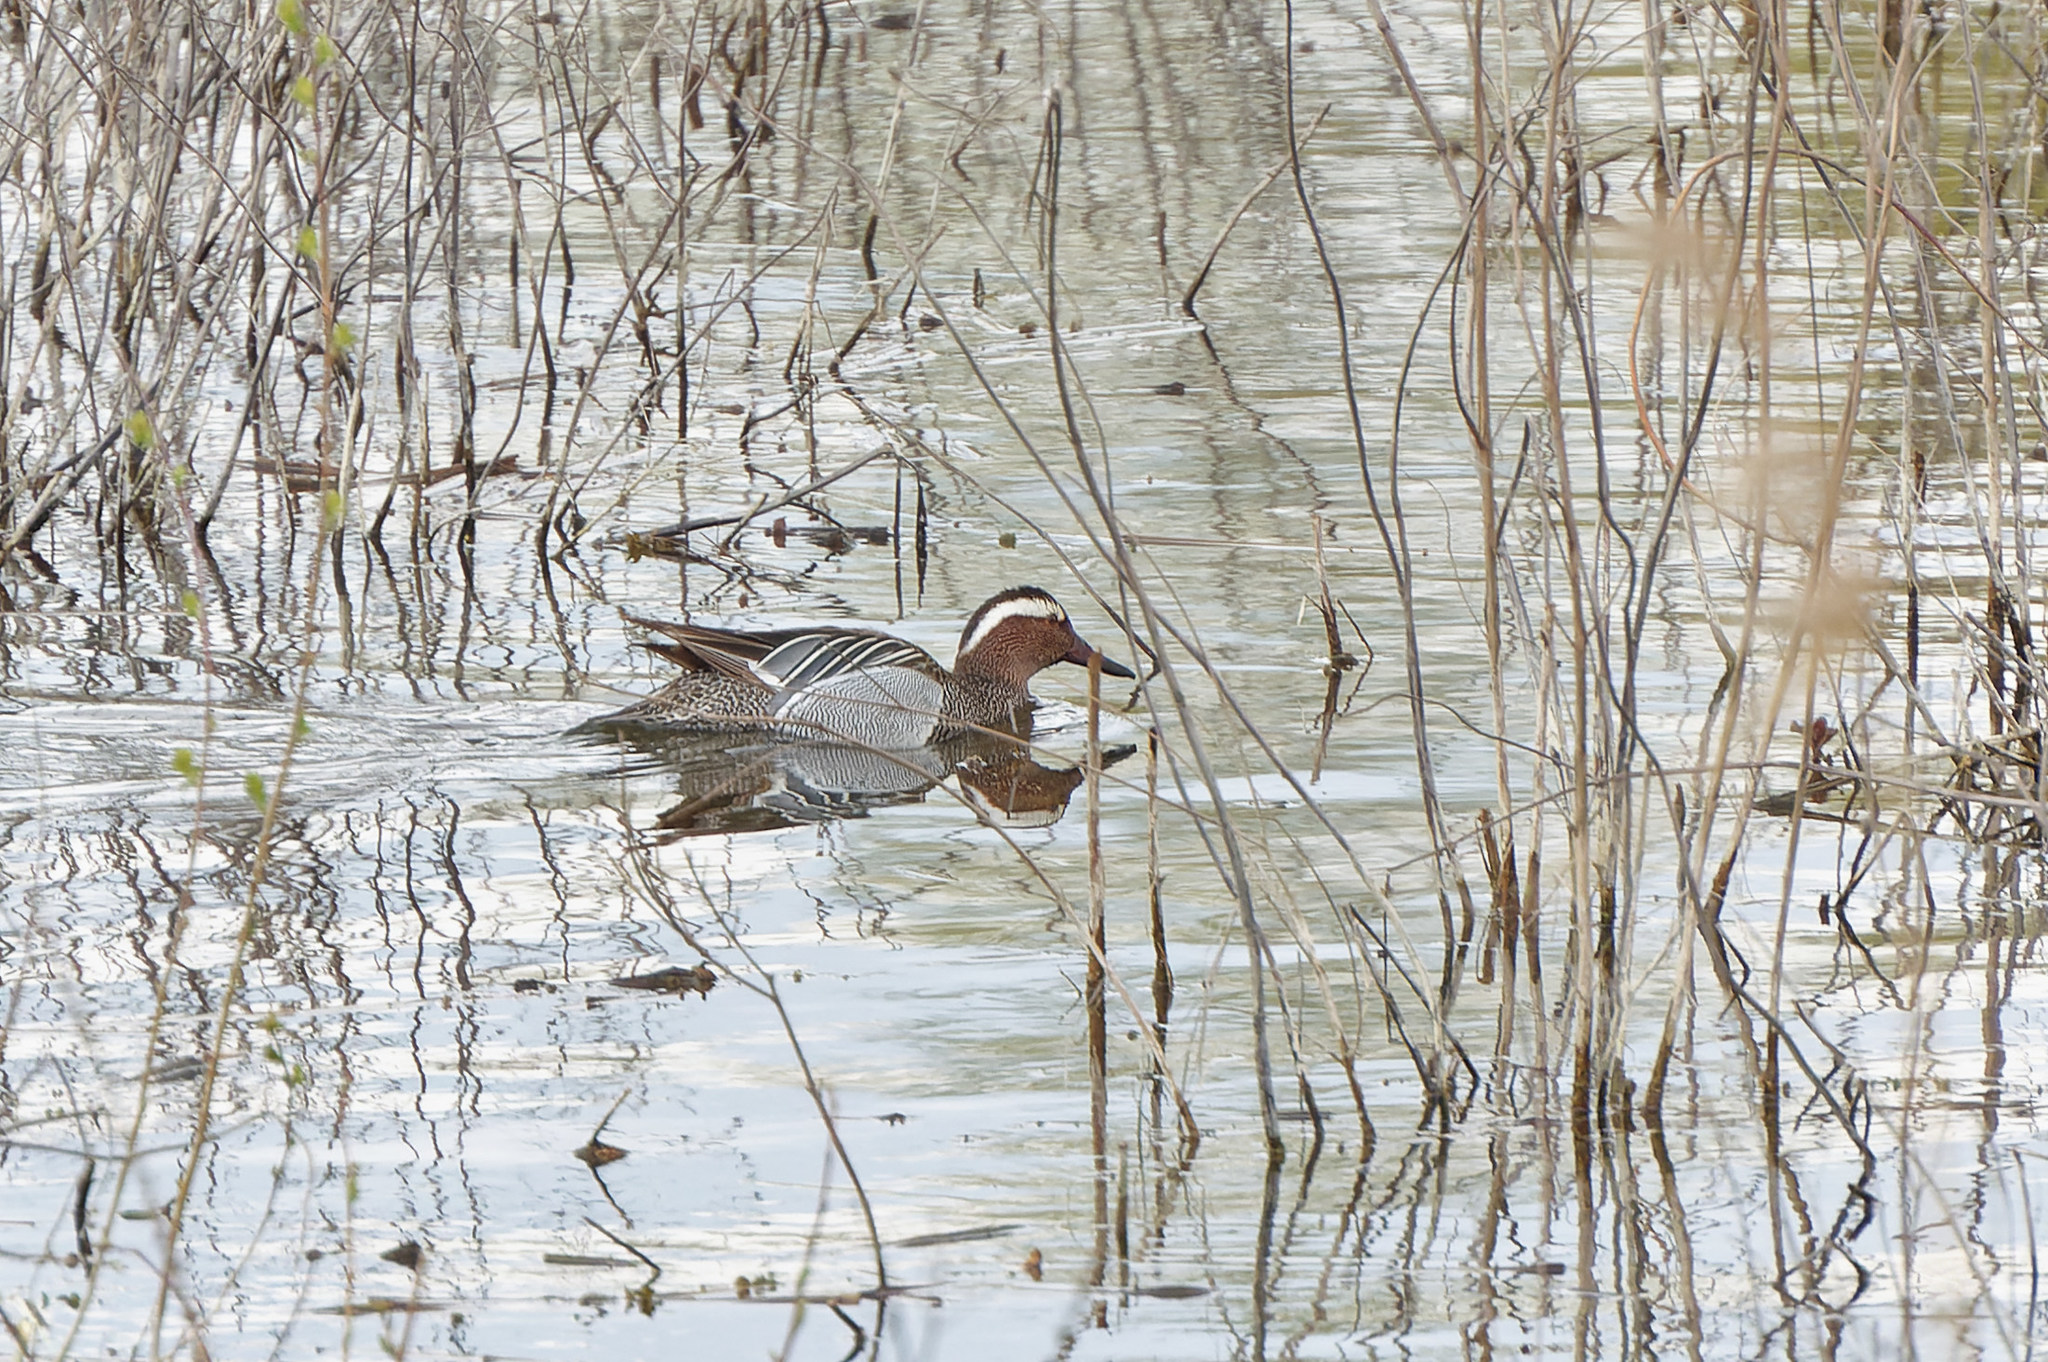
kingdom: Animalia
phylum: Chordata
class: Aves
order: Anseriformes
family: Anatidae
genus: Spatula
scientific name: Spatula querquedula
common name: Garganey
